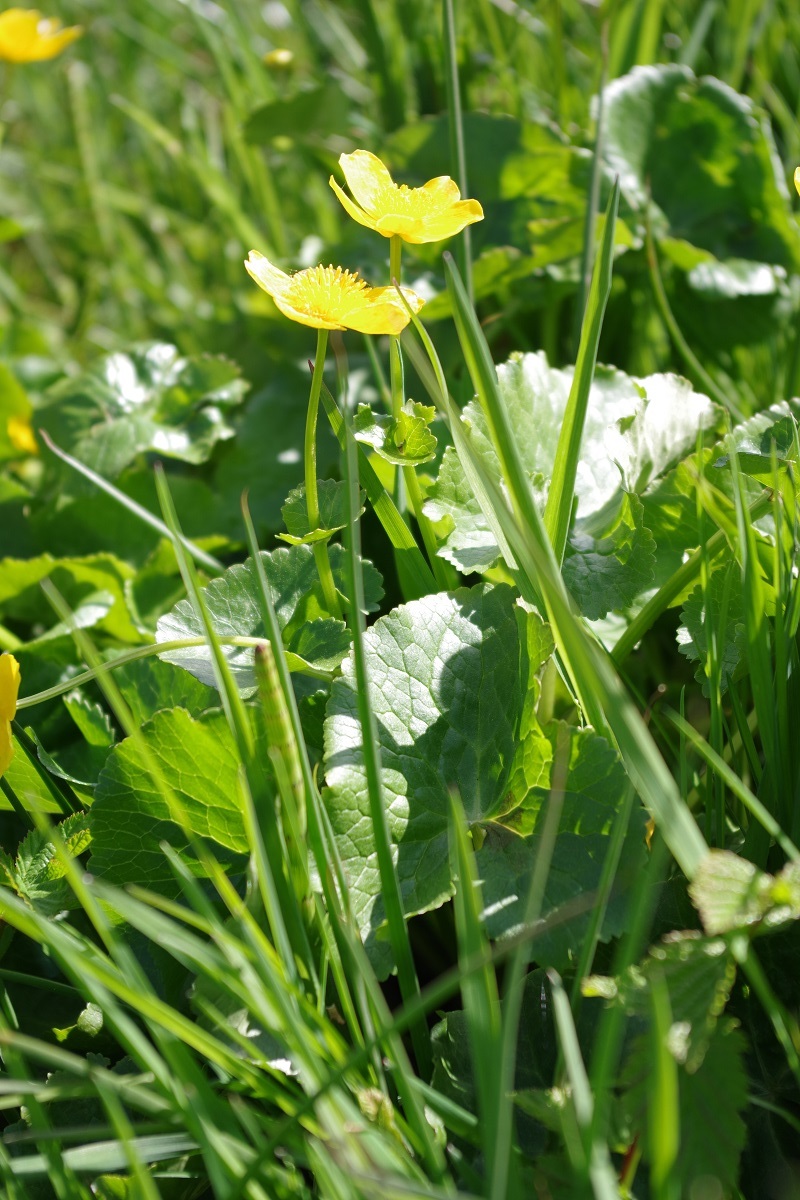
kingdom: Plantae
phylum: Tracheophyta
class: Magnoliopsida
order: Ranunculales
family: Ranunculaceae
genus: Caltha
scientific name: Caltha palustris
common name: Marsh marigold
